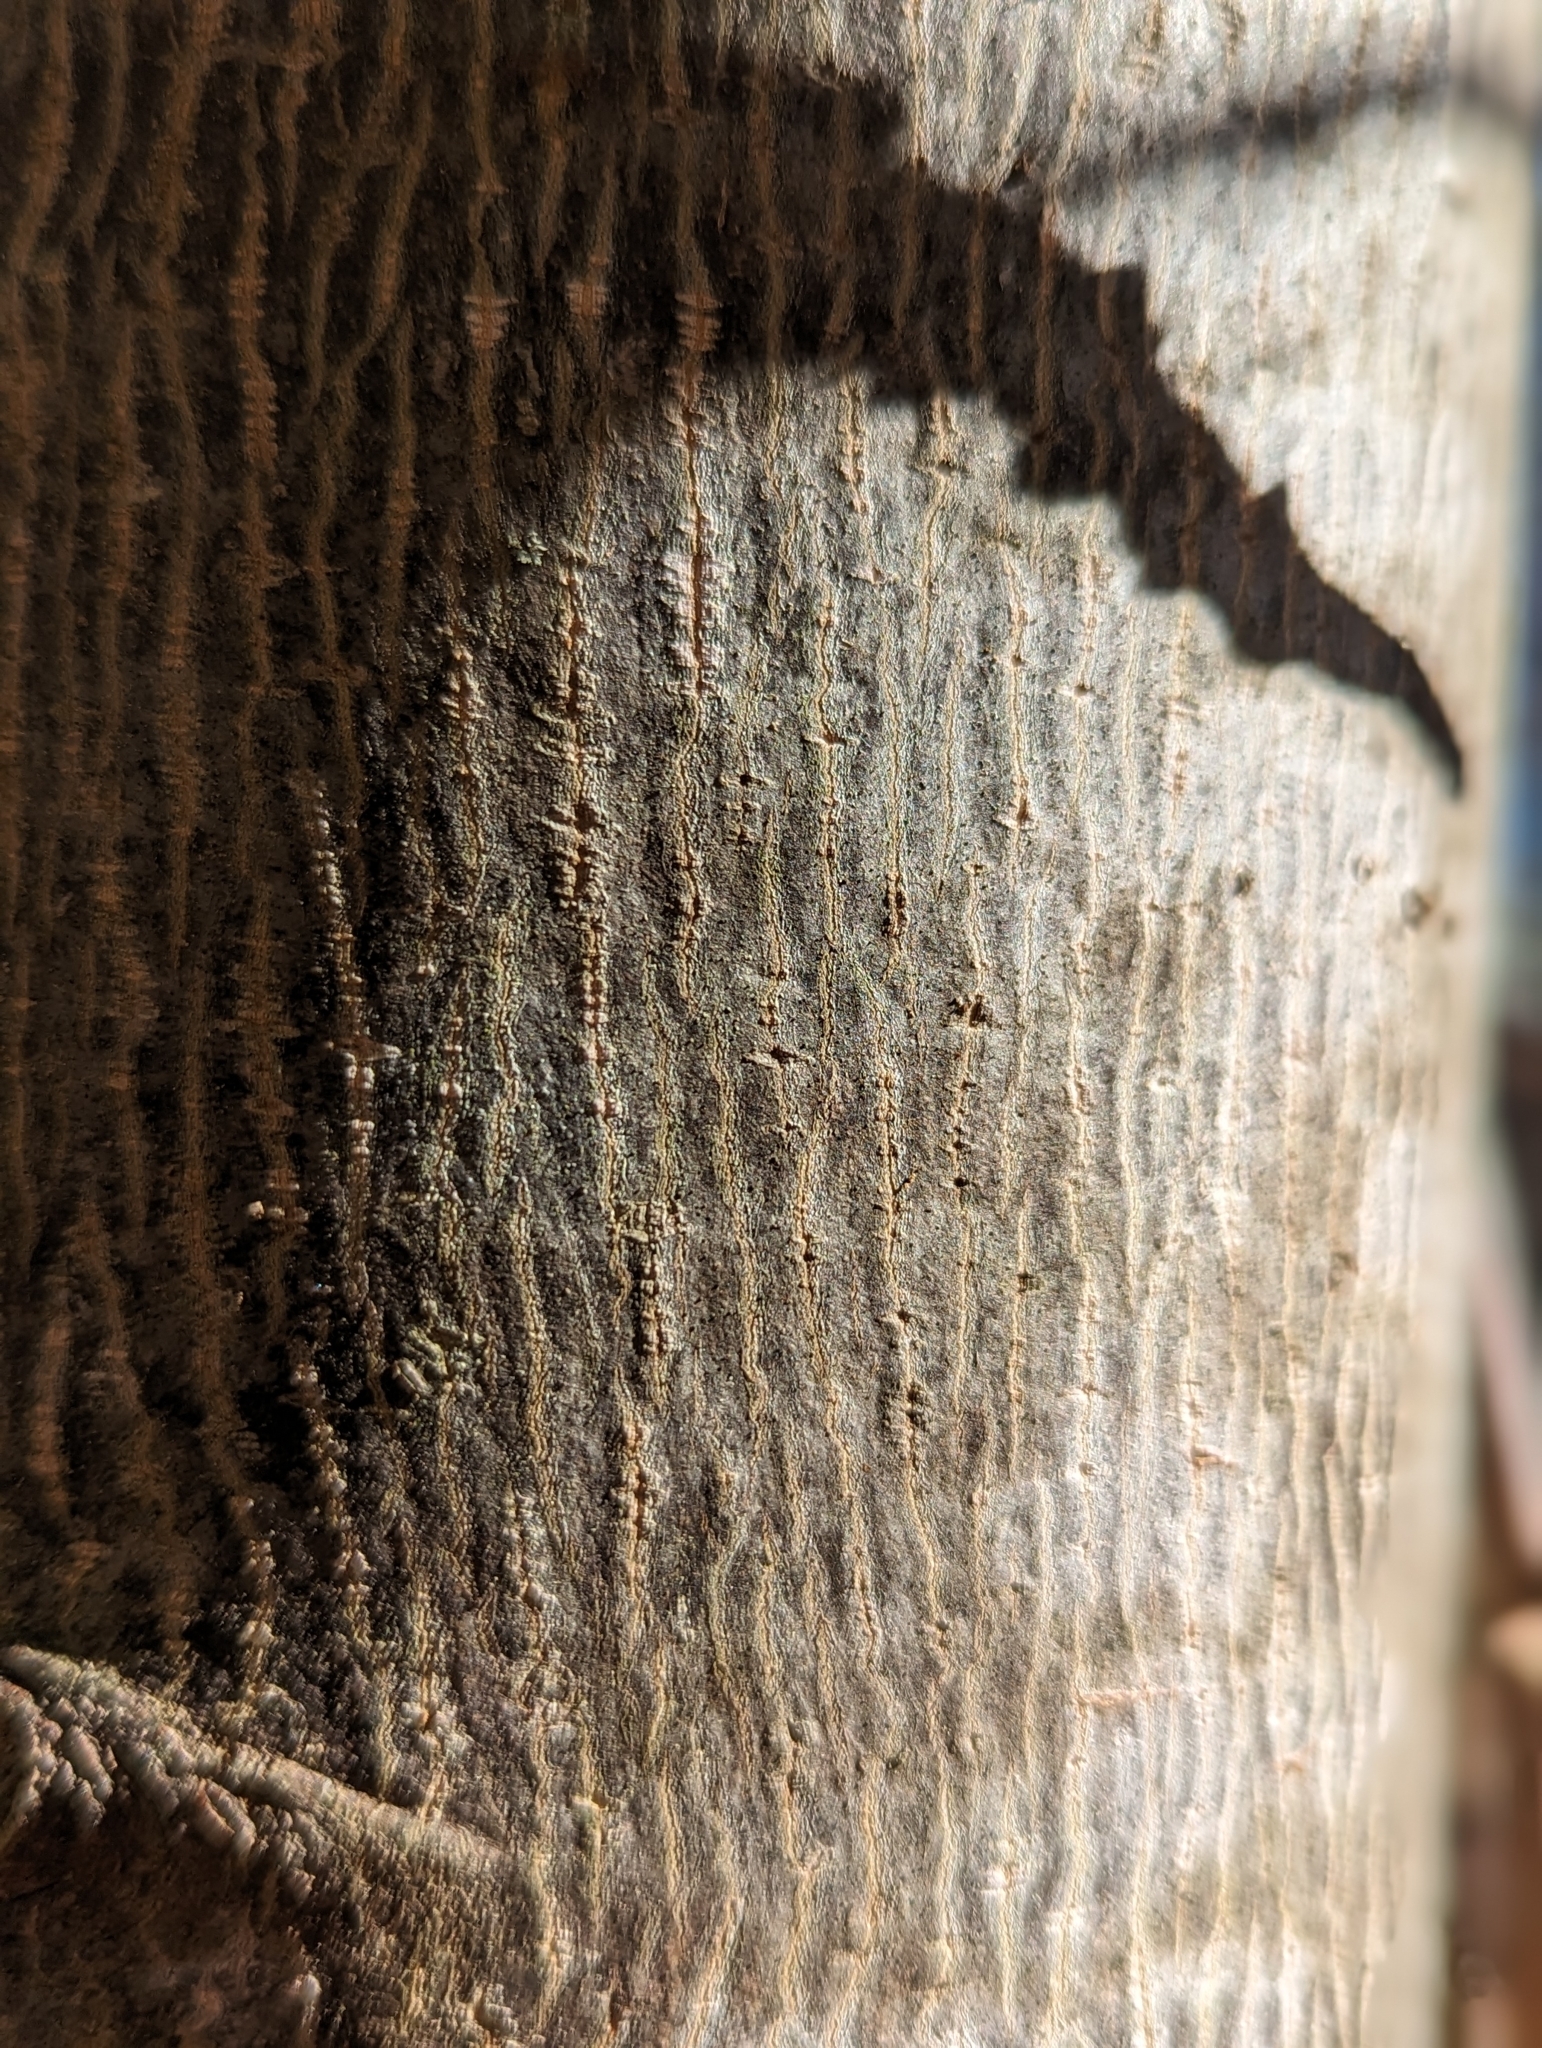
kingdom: Plantae
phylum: Tracheophyta
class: Magnoliopsida
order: Magnoliales
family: Magnoliaceae
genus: Liriodendron
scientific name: Liriodendron tulipifera
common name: Tulip tree
